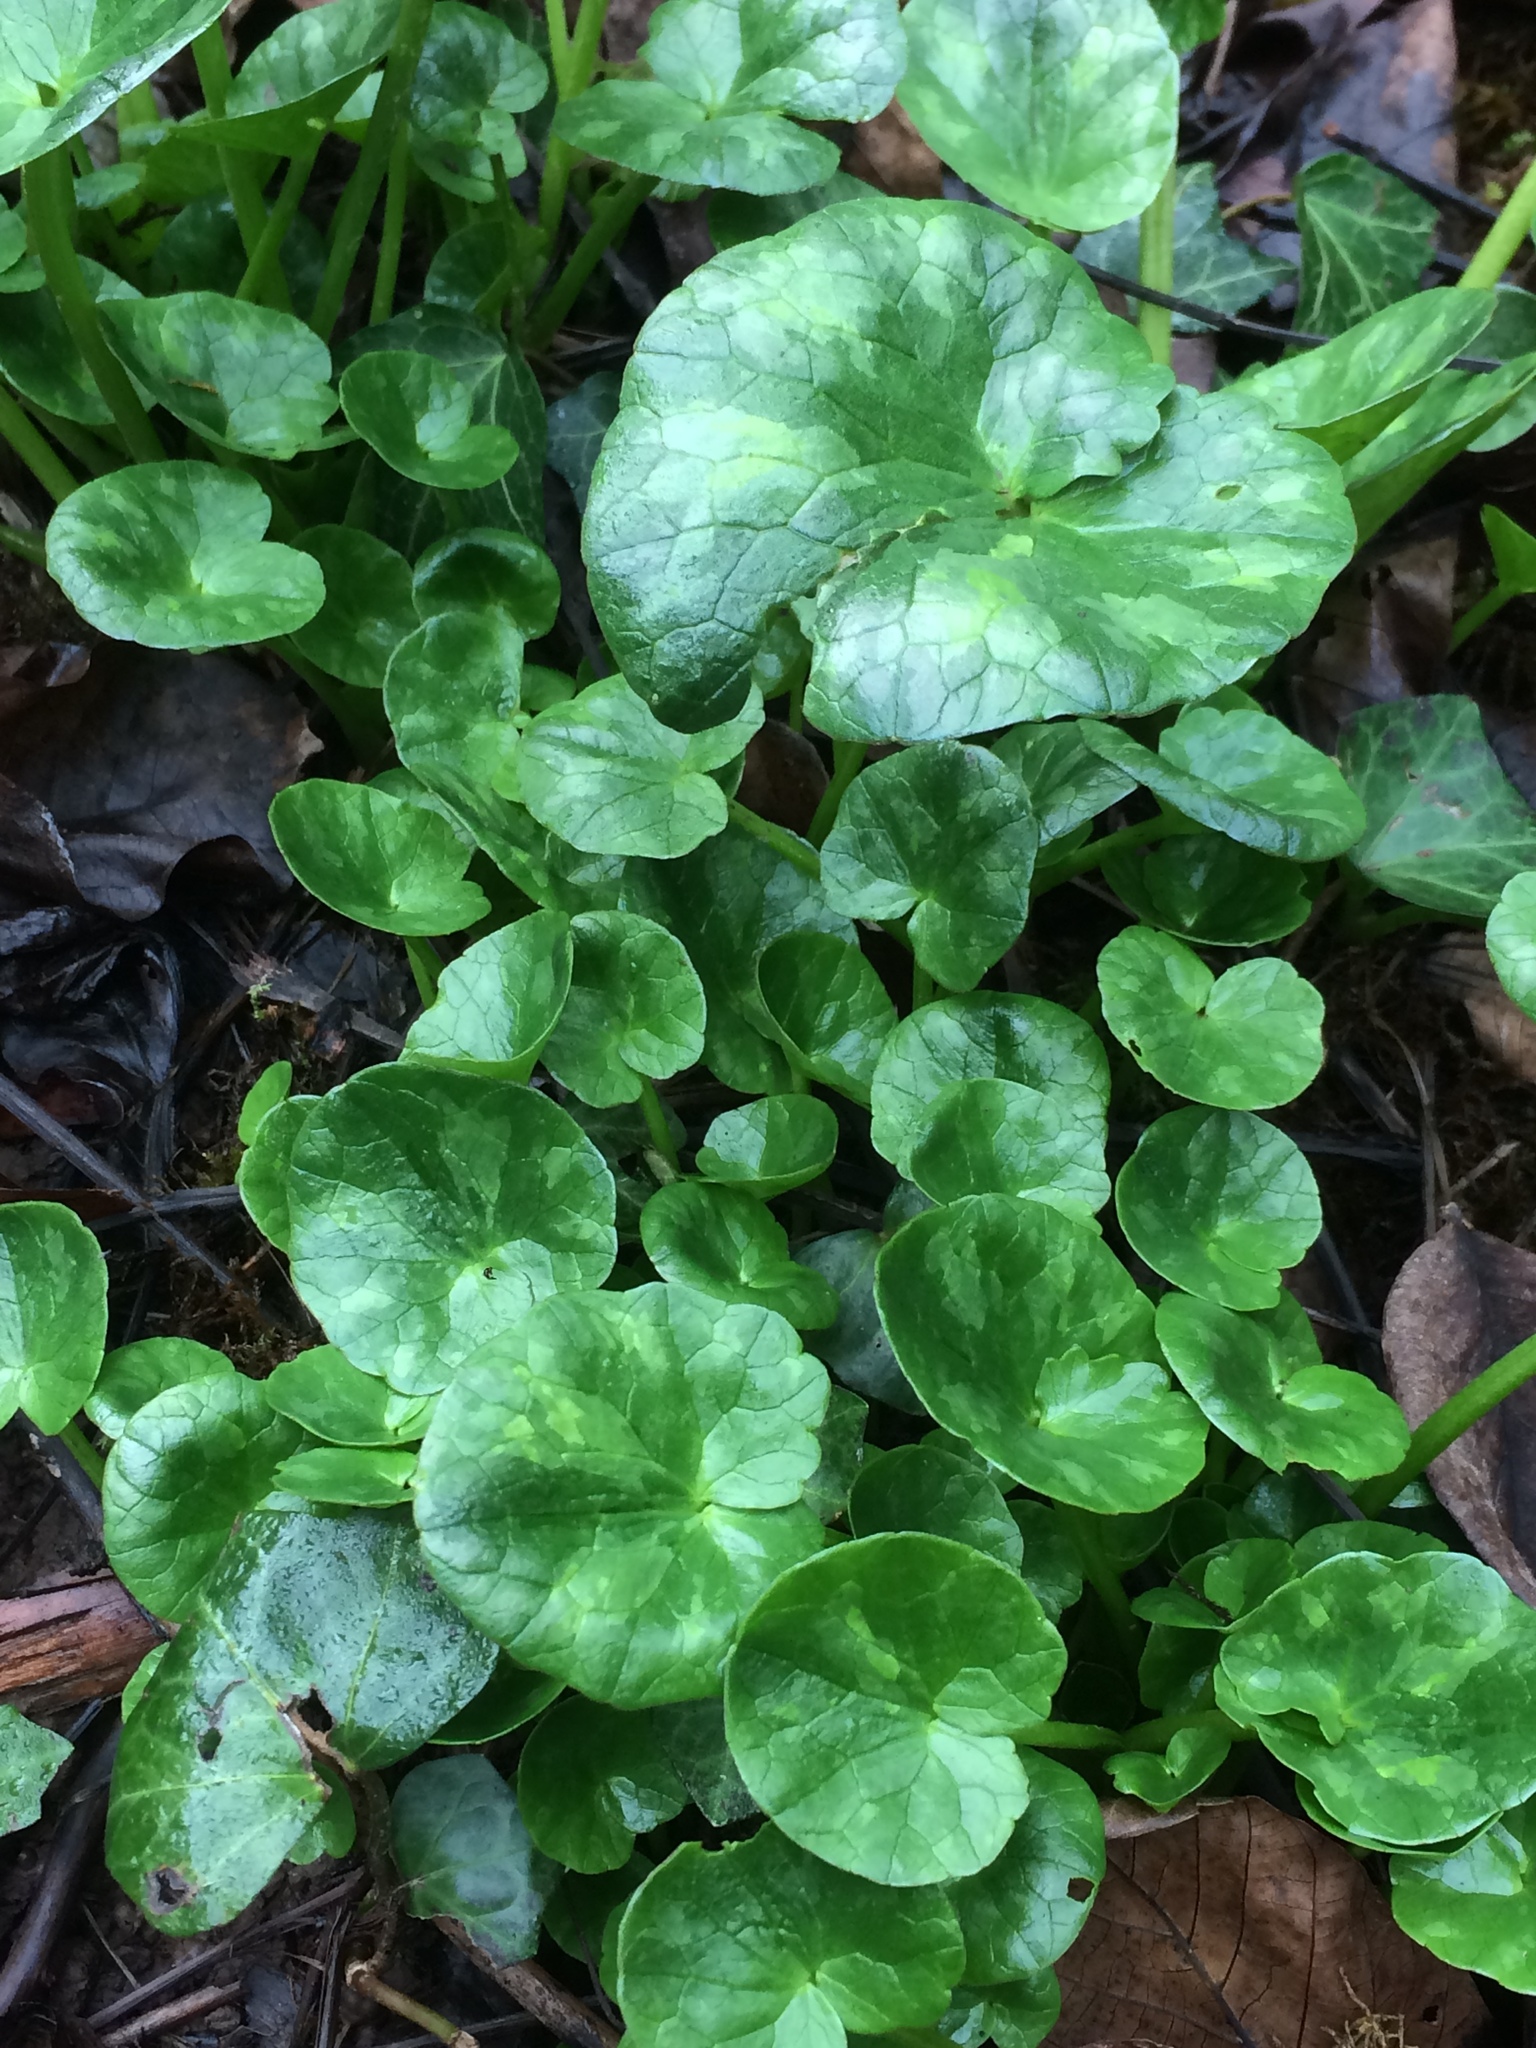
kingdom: Plantae
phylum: Tracheophyta
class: Magnoliopsida
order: Ranunculales
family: Ranunculaceae
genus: Ficaria
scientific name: Ficaria verna
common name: Lesser celandine
